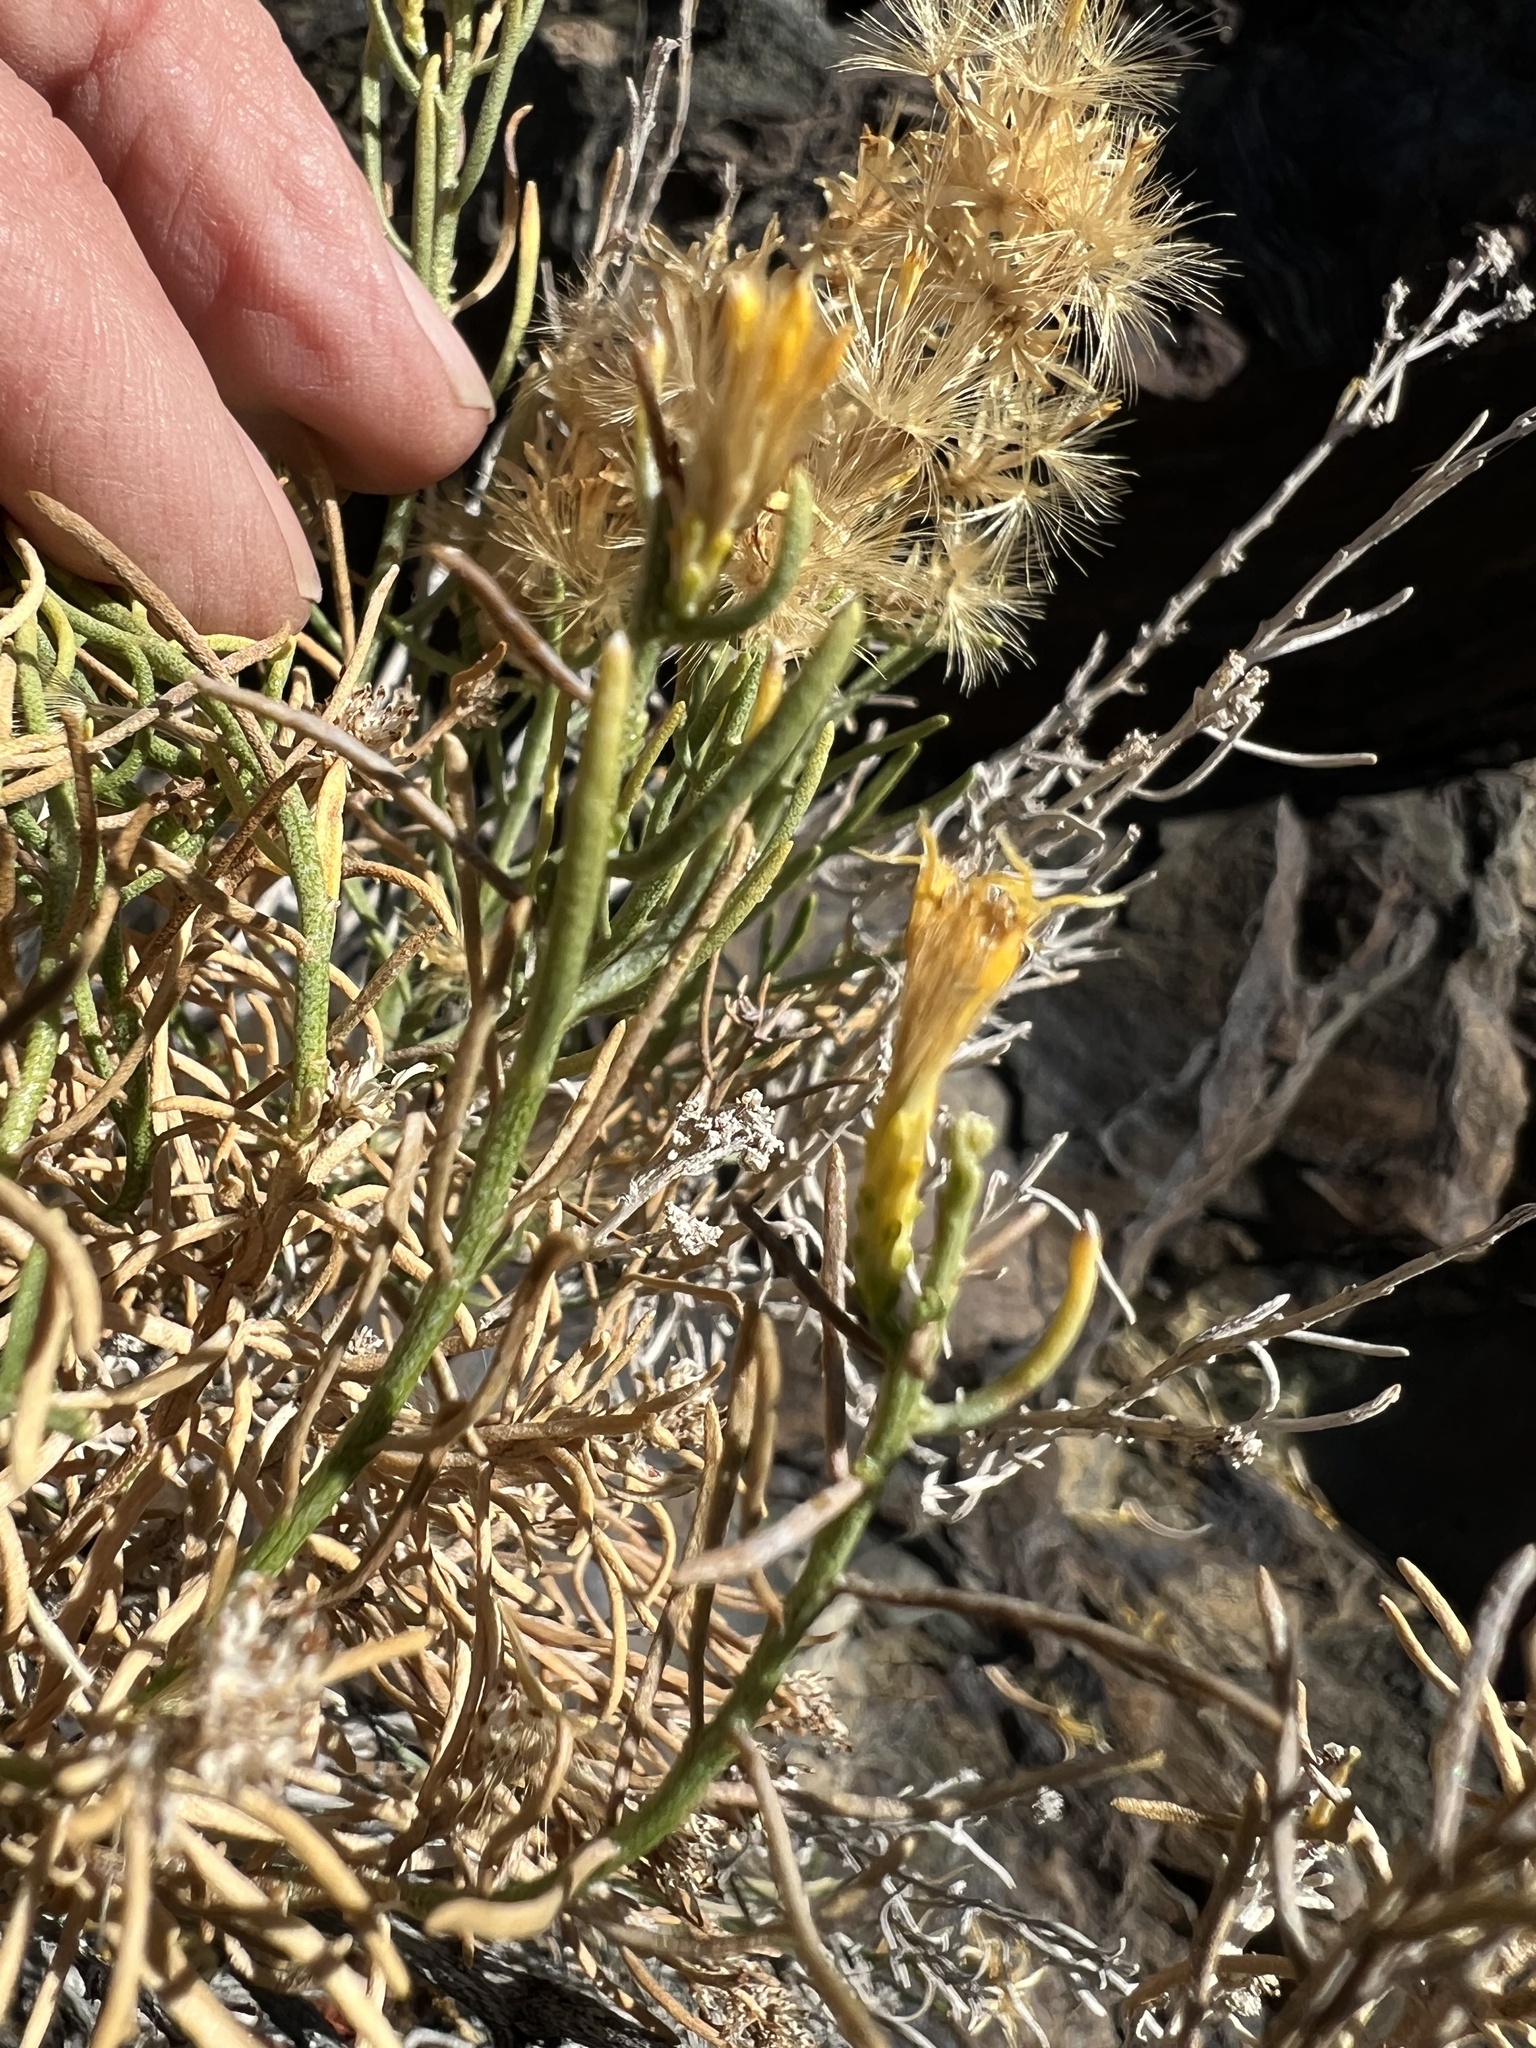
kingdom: Plantae
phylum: Tracheophyta
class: Magnoliopsida
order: Asterales
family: Asteraceae
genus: Ericameria
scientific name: Ericameria teretifolia
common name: Round-leaf rabbitbrush
